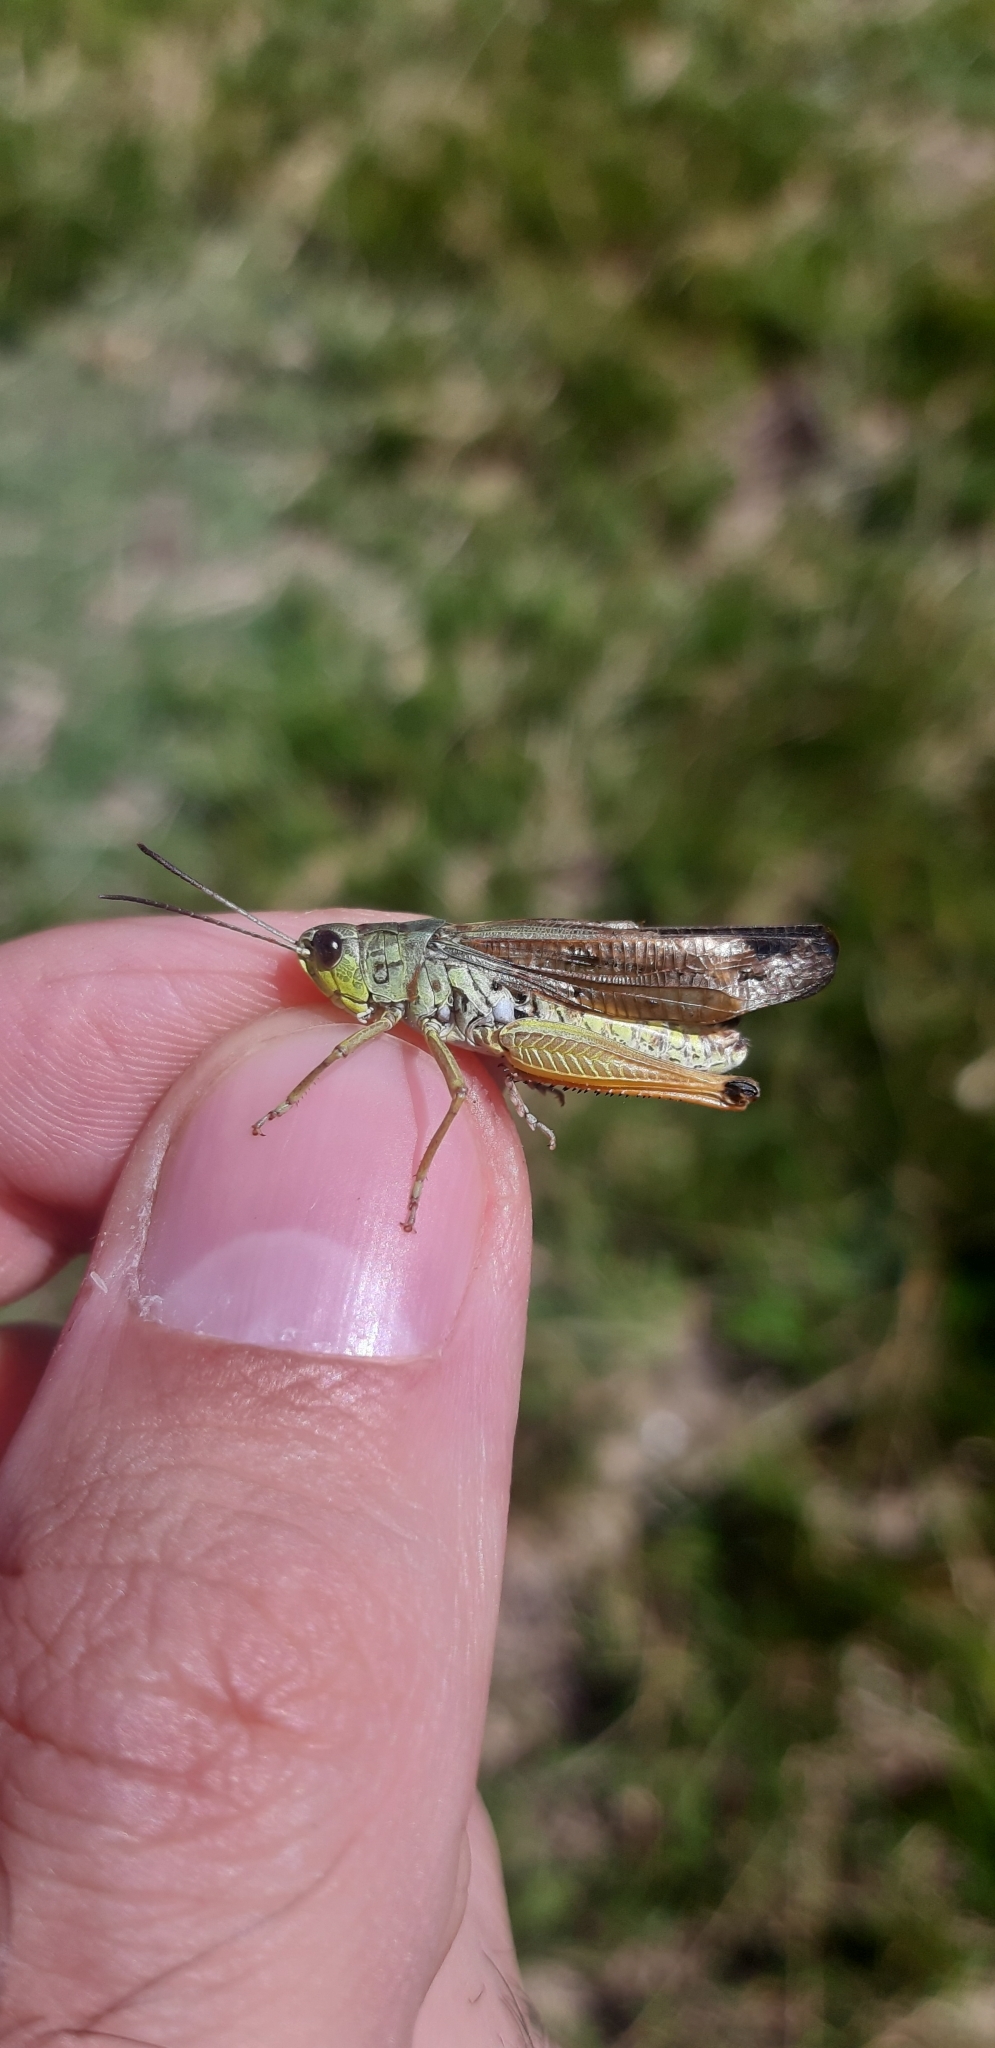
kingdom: Animalia
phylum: Arthropoda
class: Insecta
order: Orthoptera
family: Acrididae
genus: Stauroderus
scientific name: Stauroderus scalaris
